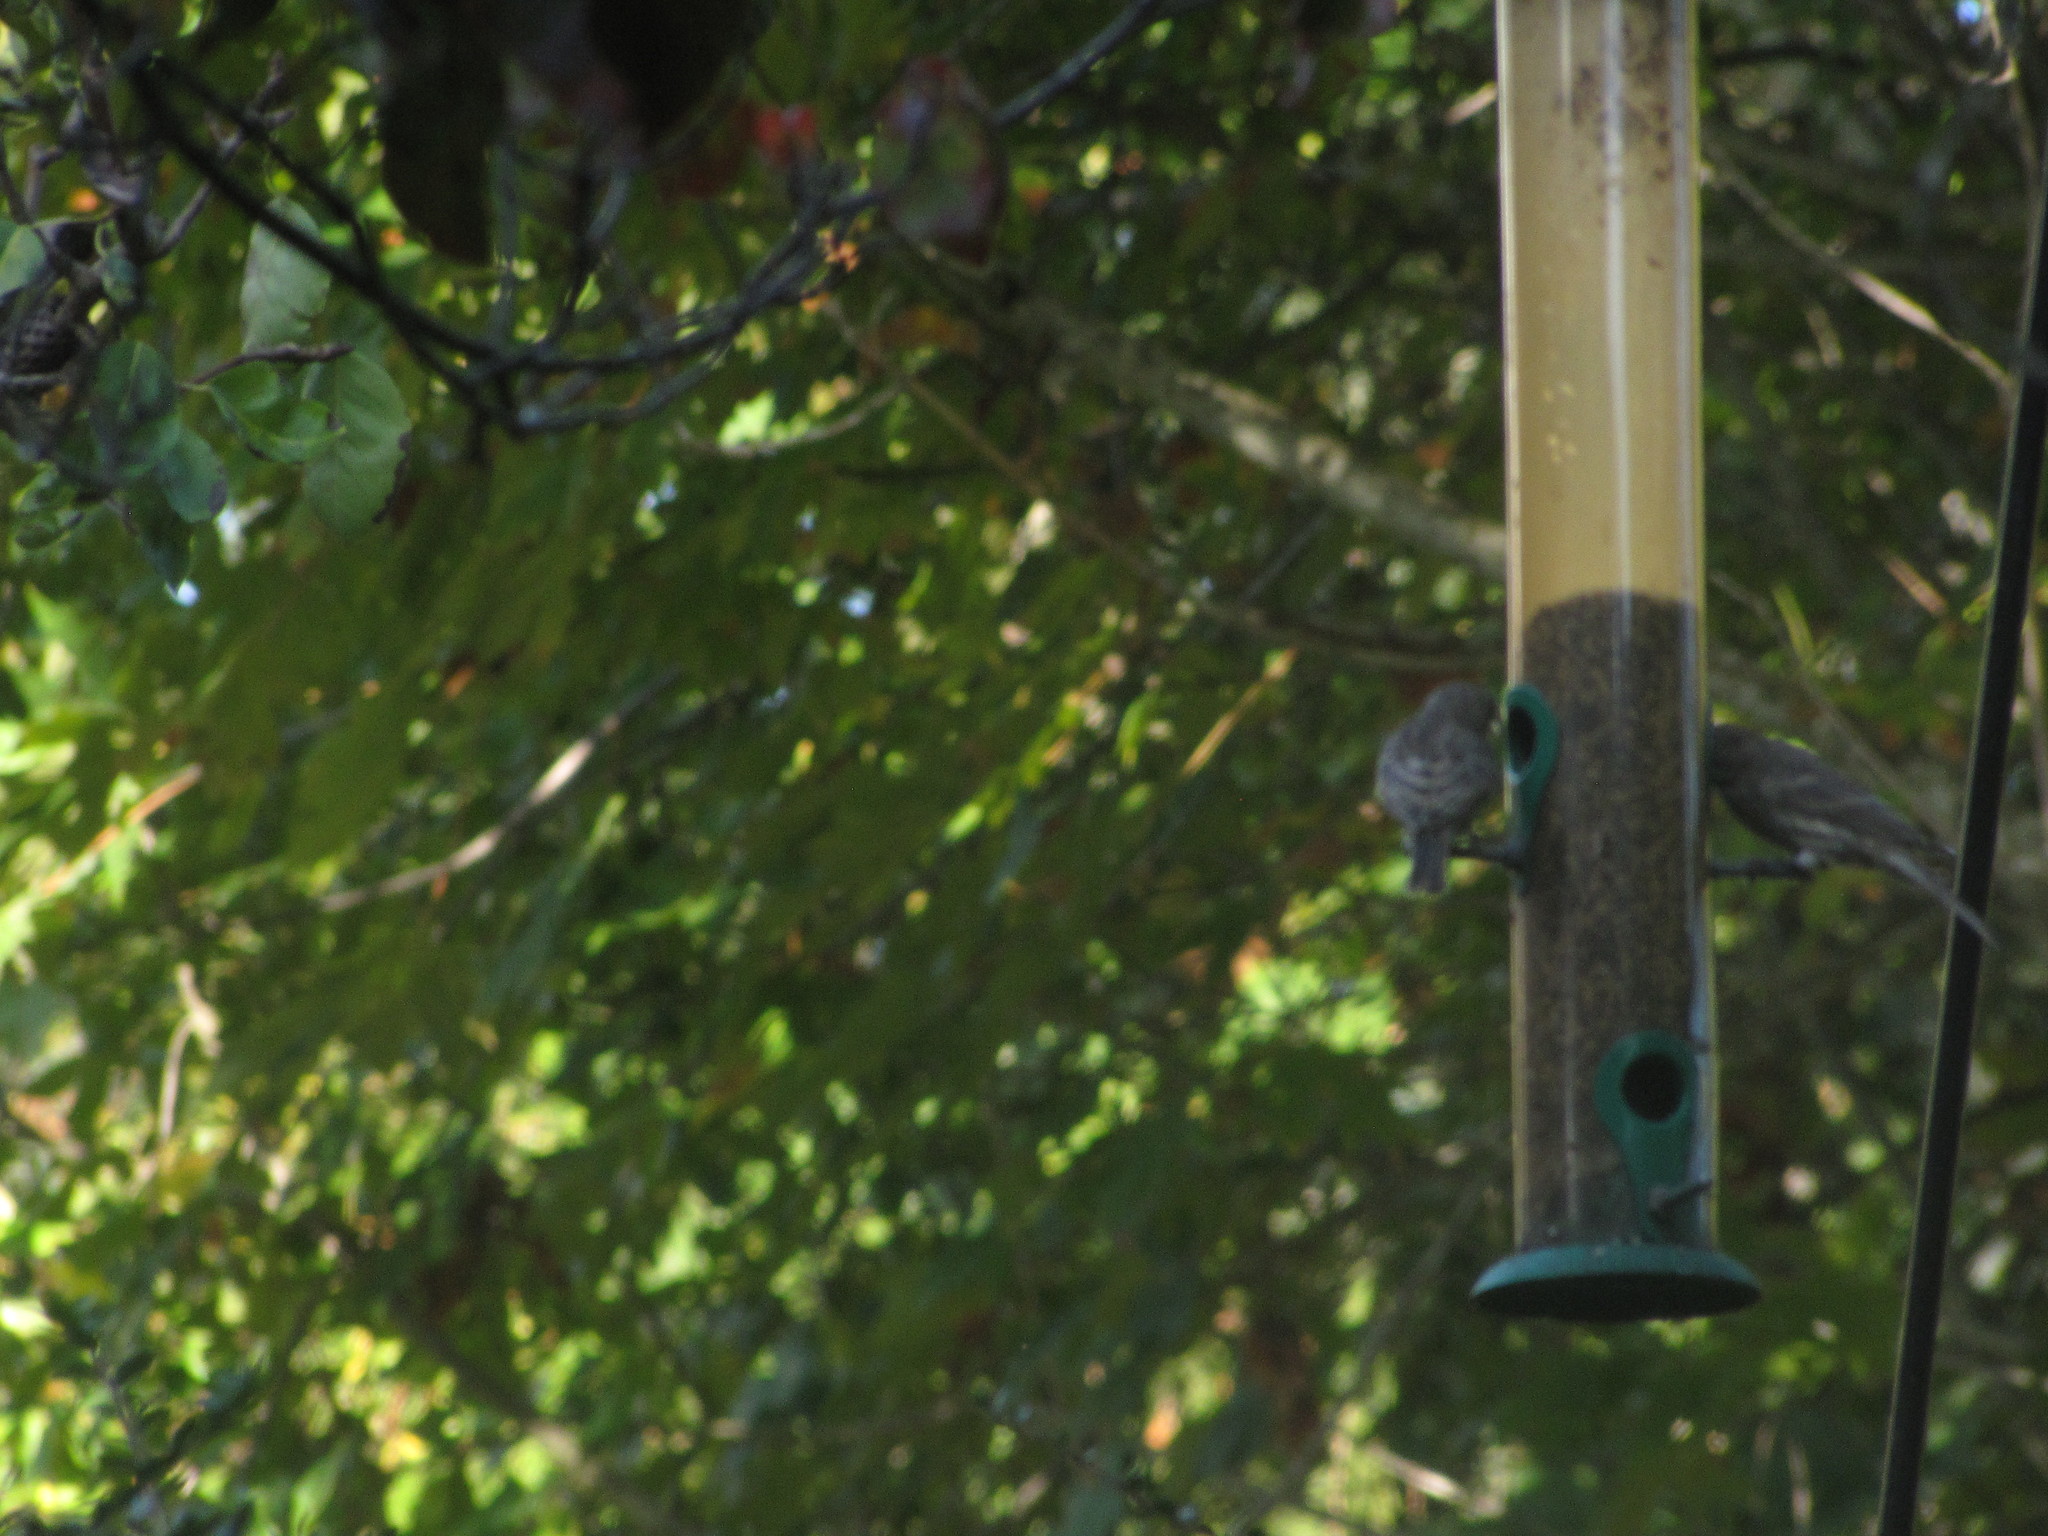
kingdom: Animalia
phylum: Chordata
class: Aves
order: Passeriformes
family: Fringillidae
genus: Haemorhous
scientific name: Haemorhous mexicanus
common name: House finch
